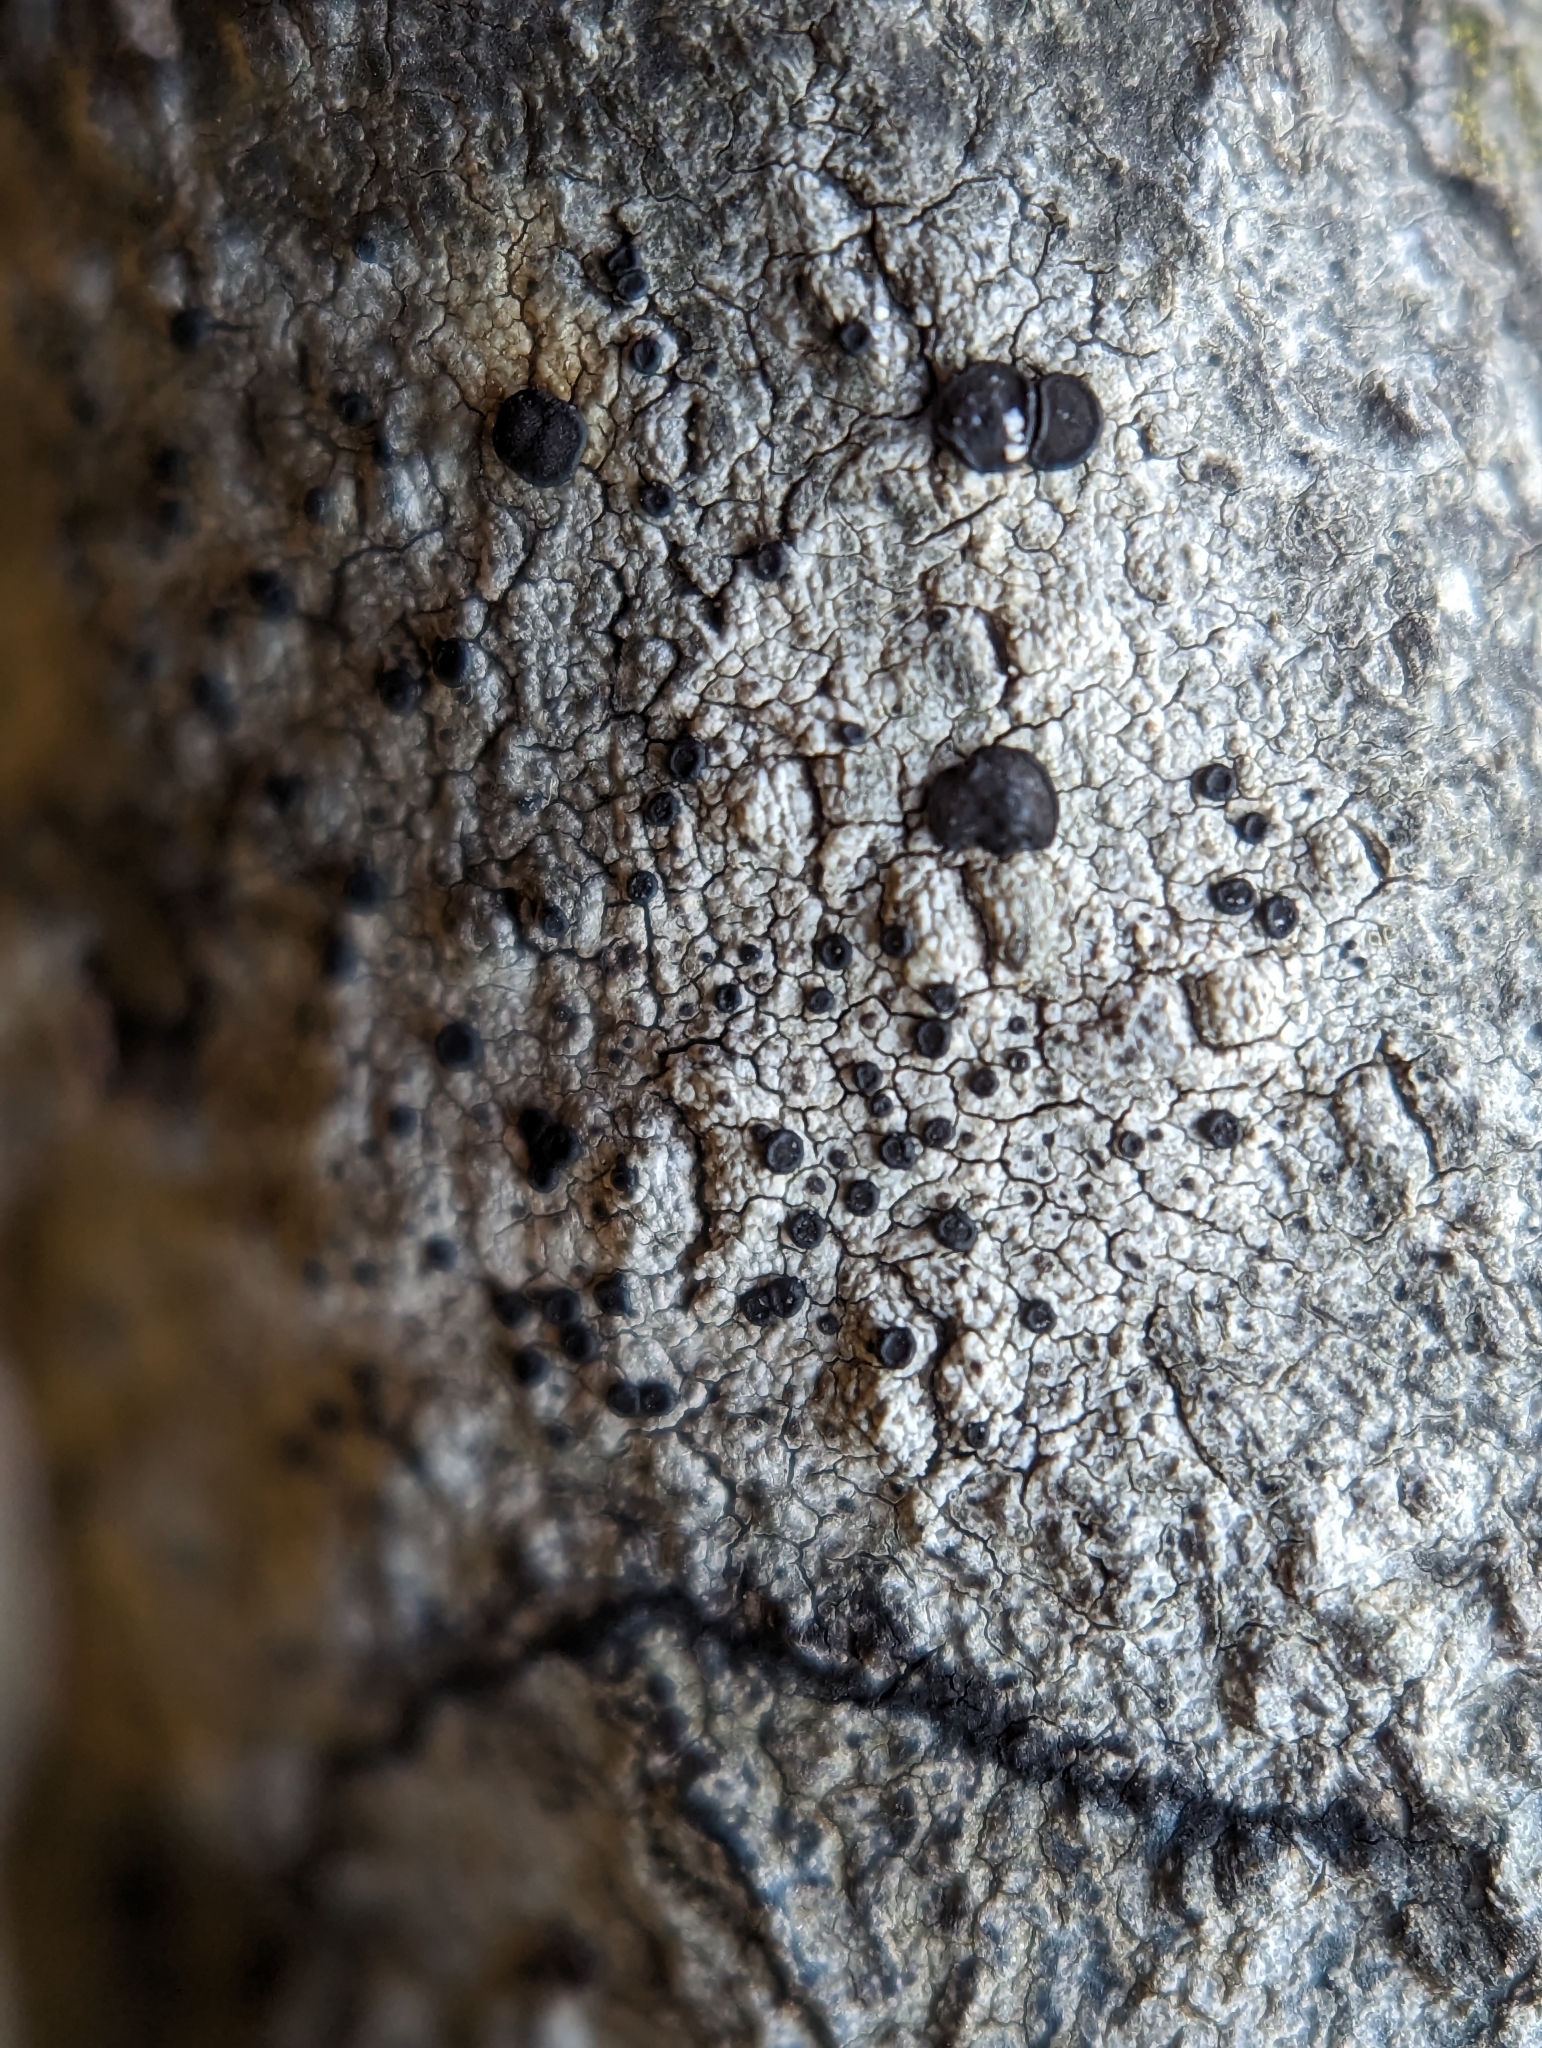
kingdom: Fungi
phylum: Ascomycota
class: Lecanoromycetes
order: Caliciales
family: Caliciaceae
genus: Buellia
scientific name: Buellia erubescens
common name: Common button lichen
